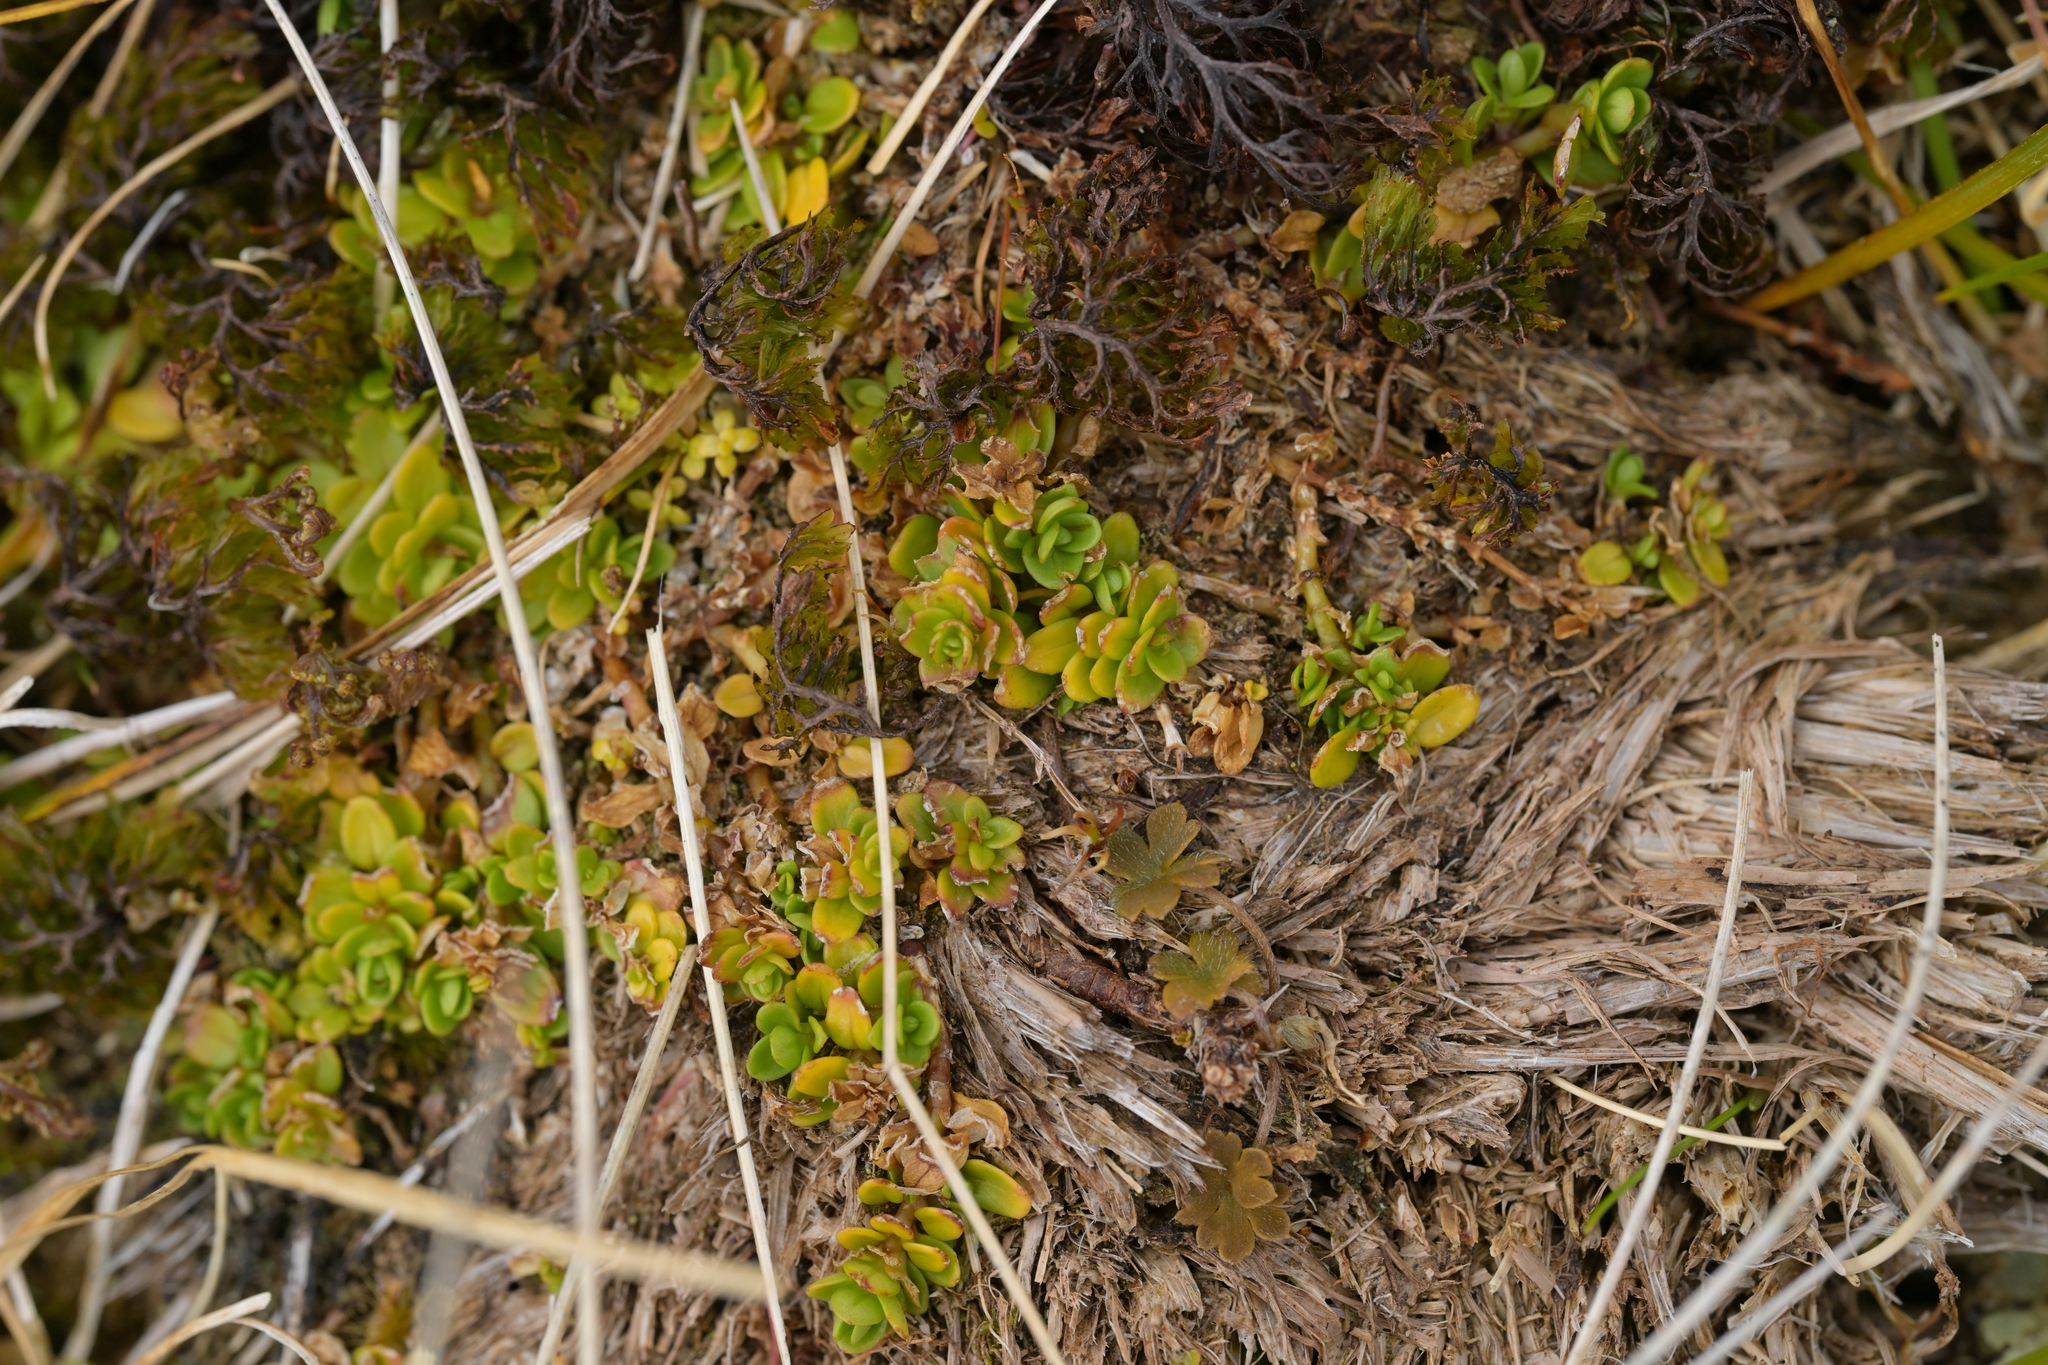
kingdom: Plantae
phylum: Tracheophyta
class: Magnoliopsida
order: Myrtales
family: Onagraceae
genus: Epilobium
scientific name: Epilobium confertifolium
